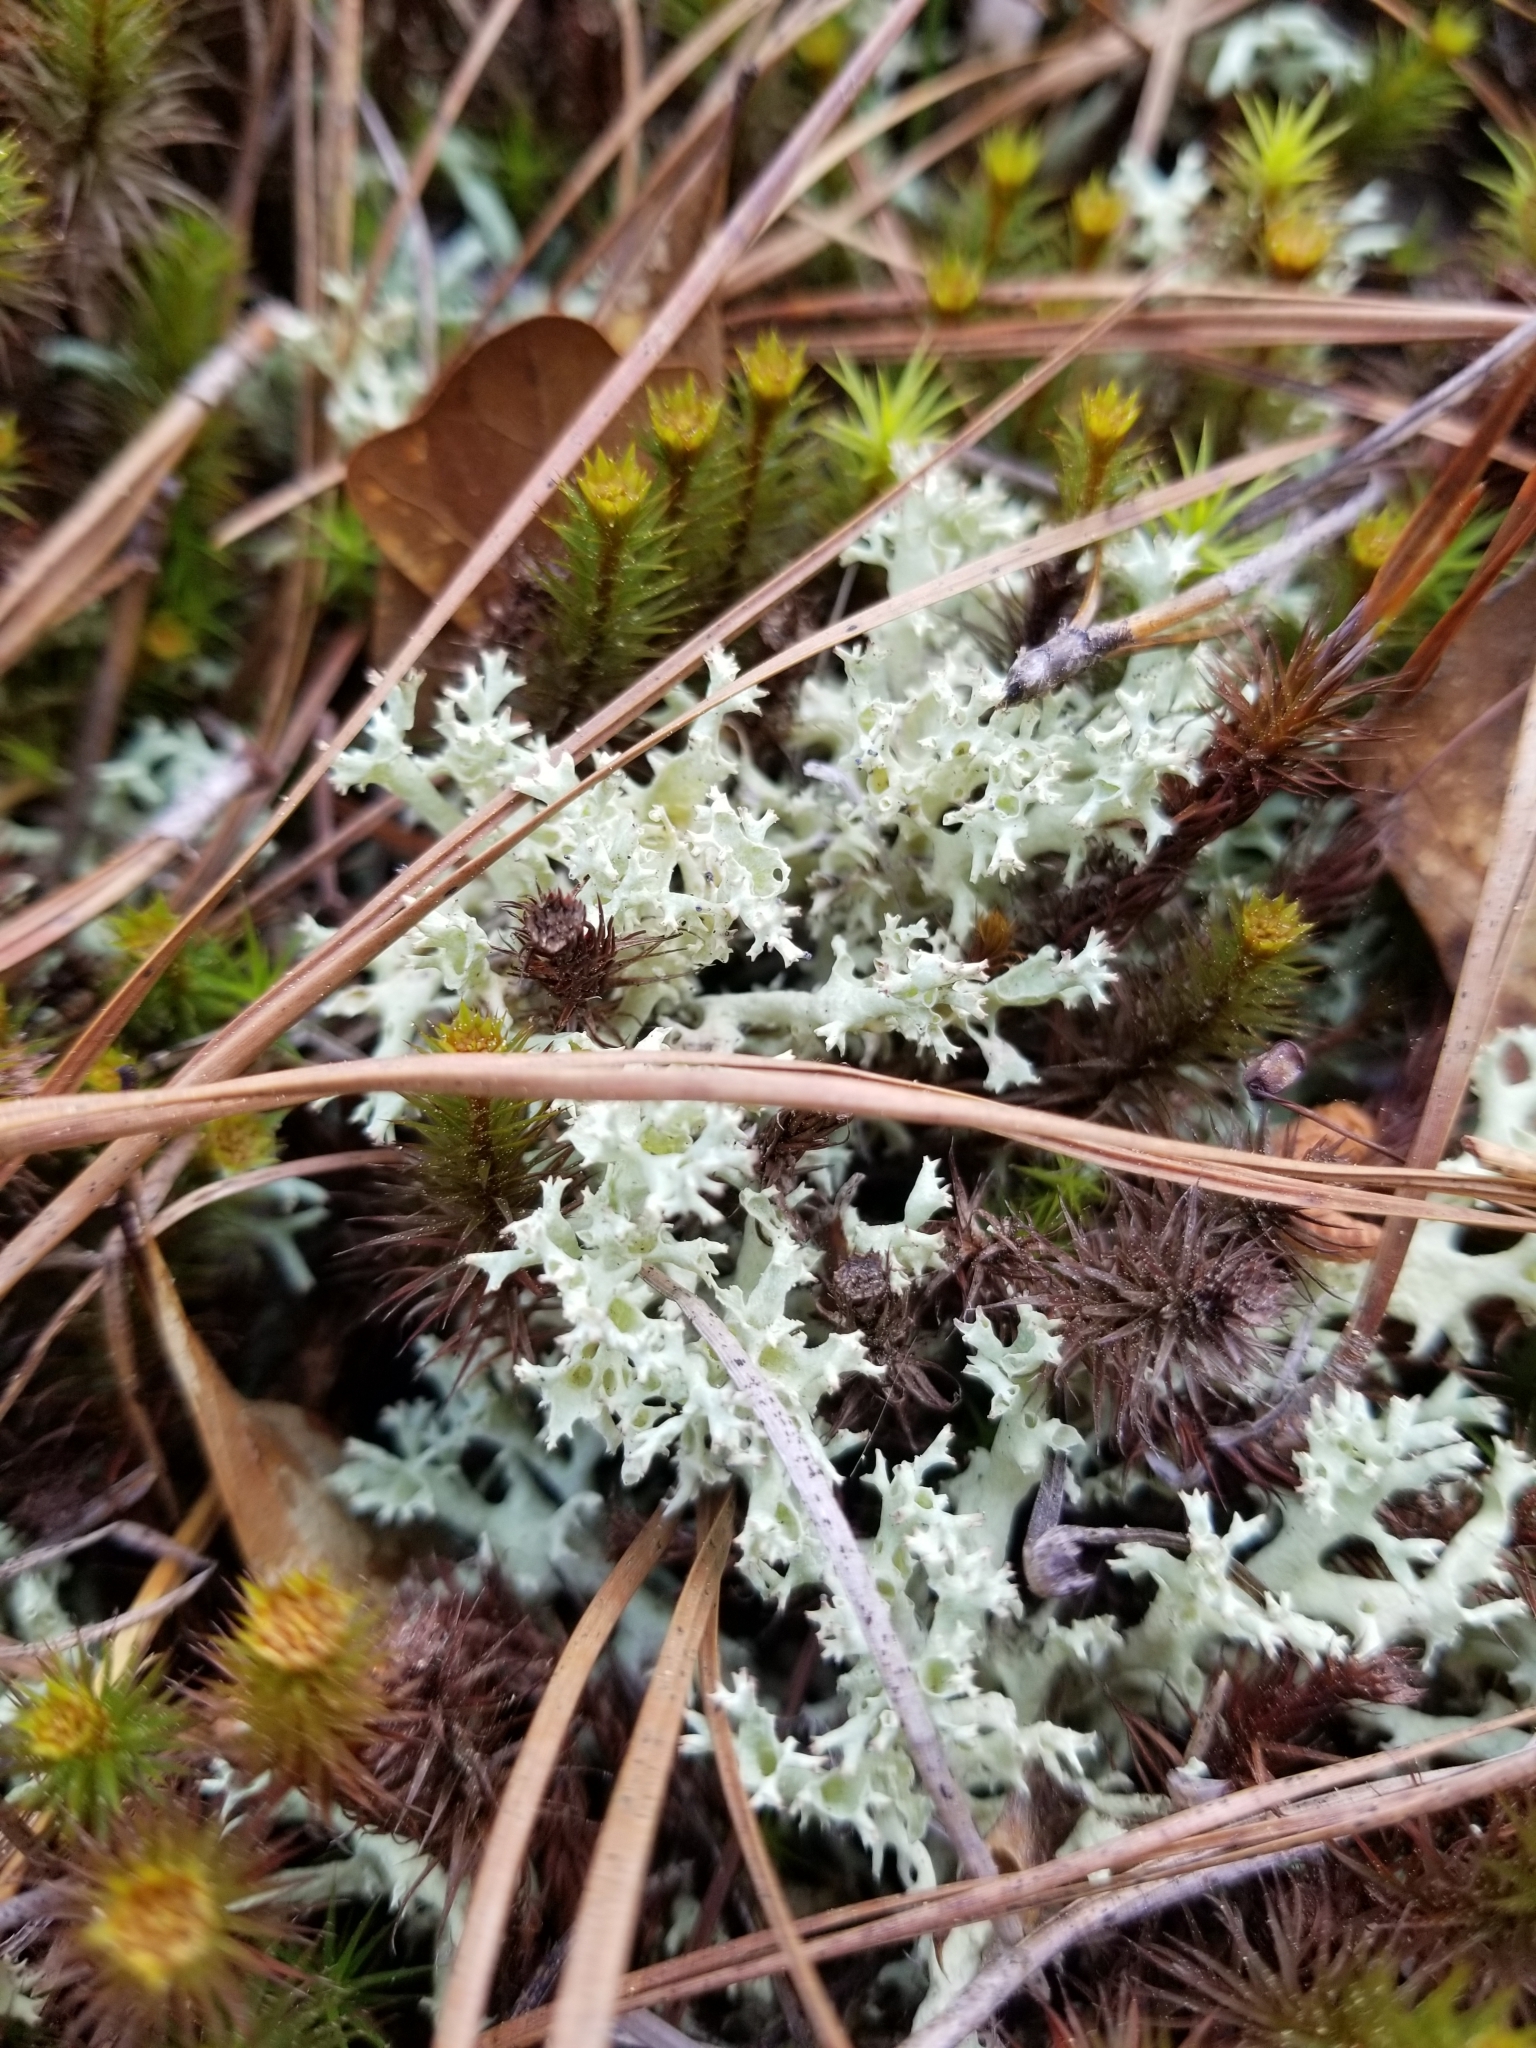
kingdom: Fungi
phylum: Ascomycota
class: Lecanoromycetes
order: Lecanorales
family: Cladoniaceae
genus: Cladonia
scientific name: Cladonia caroliniana
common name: Granite thorn
